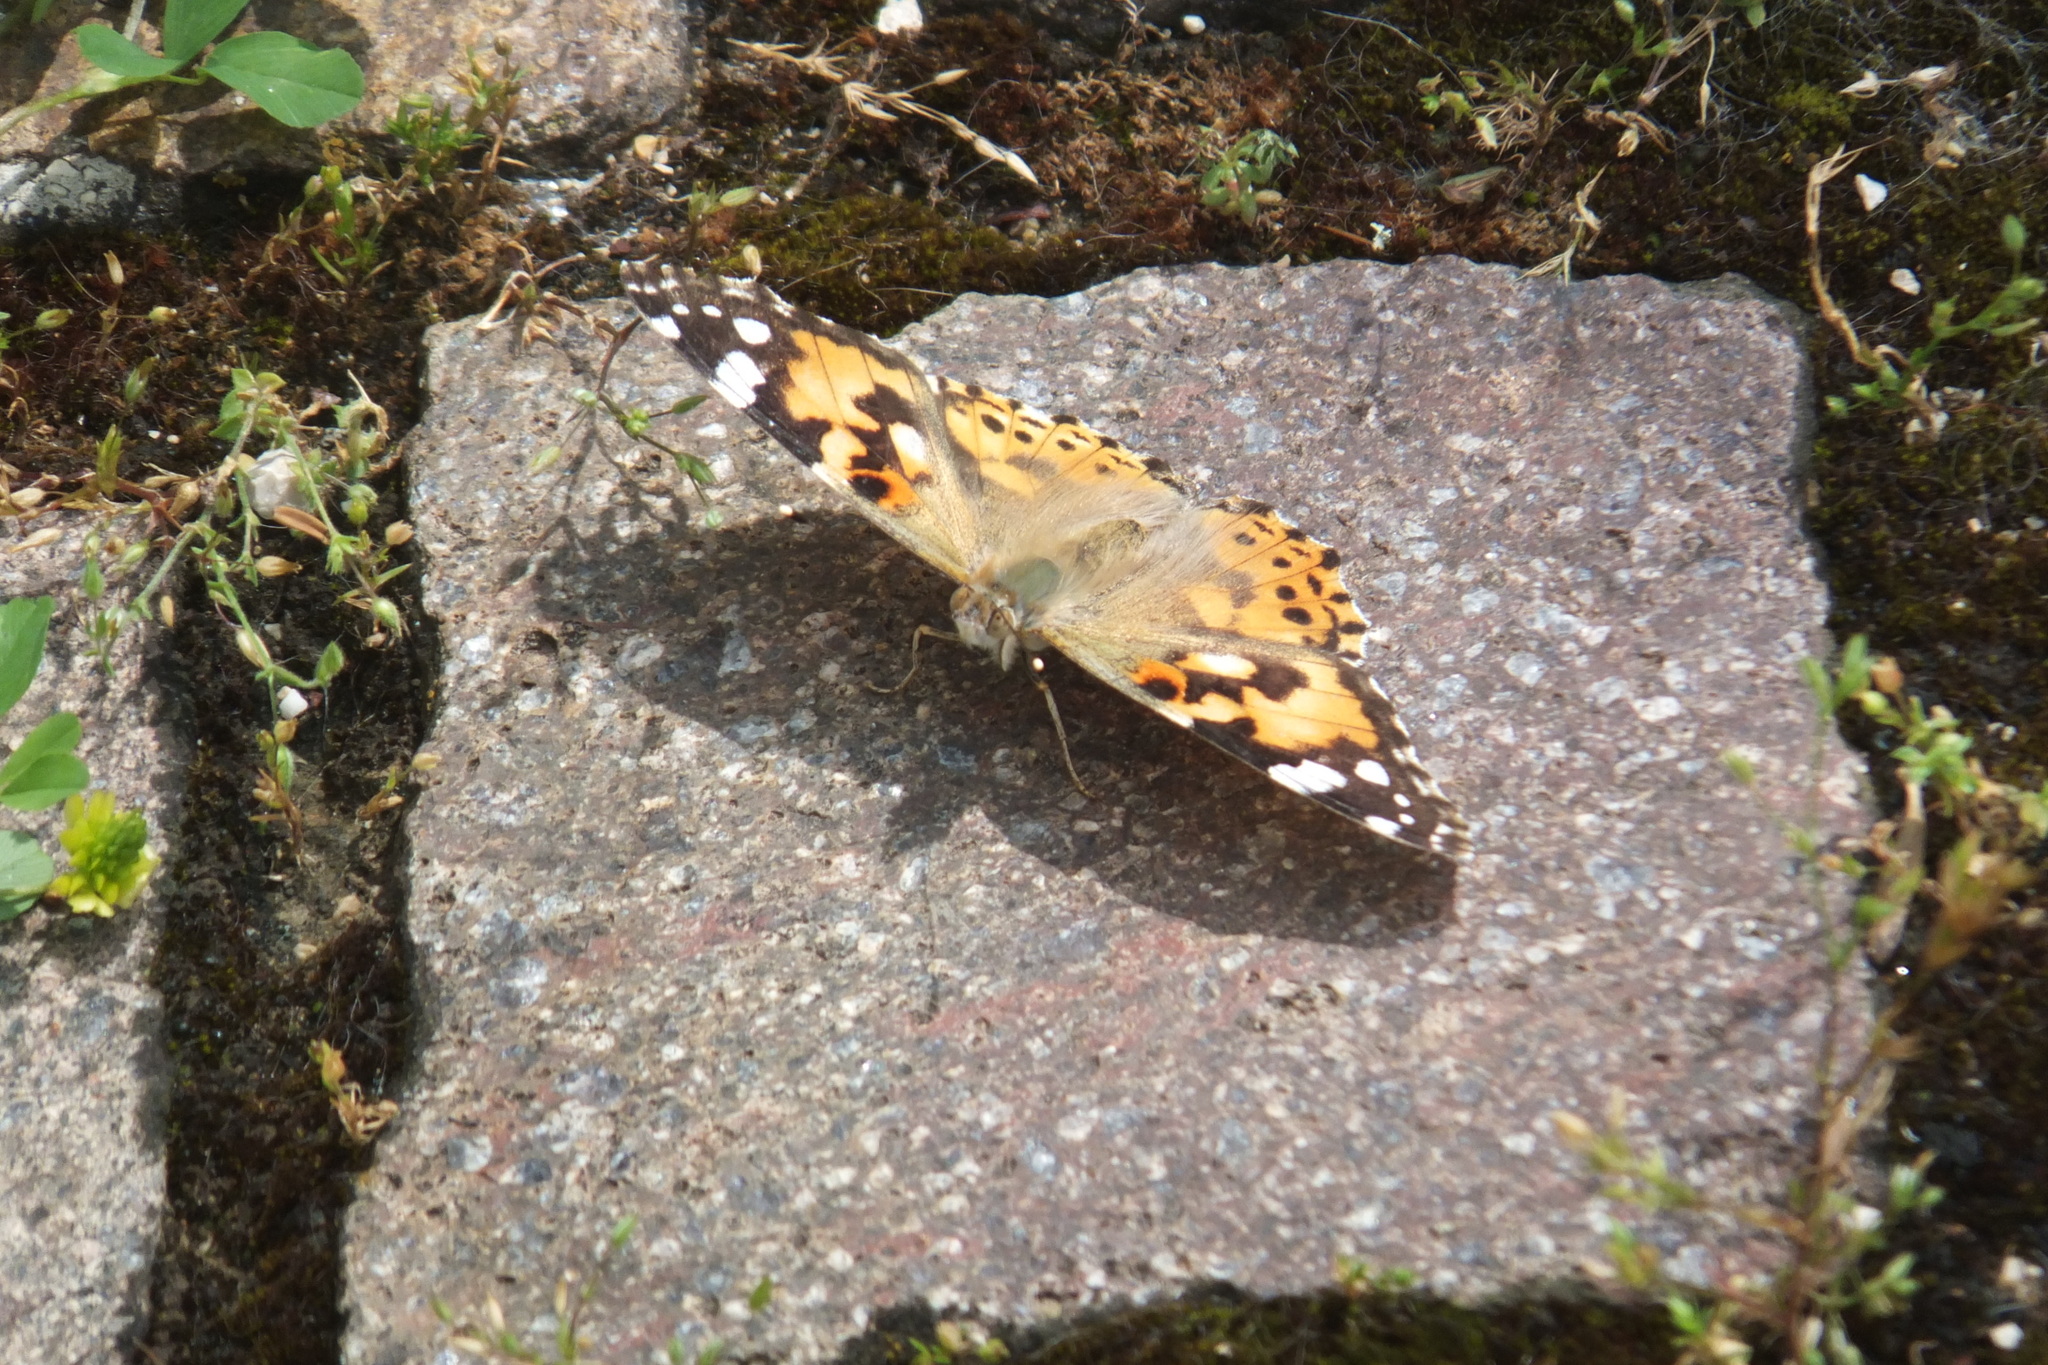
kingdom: Animalia
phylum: Arthropoda
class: Insecta
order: Lepidoptera
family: Nymphalidae
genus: Vanessa
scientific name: Vanessa cardui
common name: Painted lady
